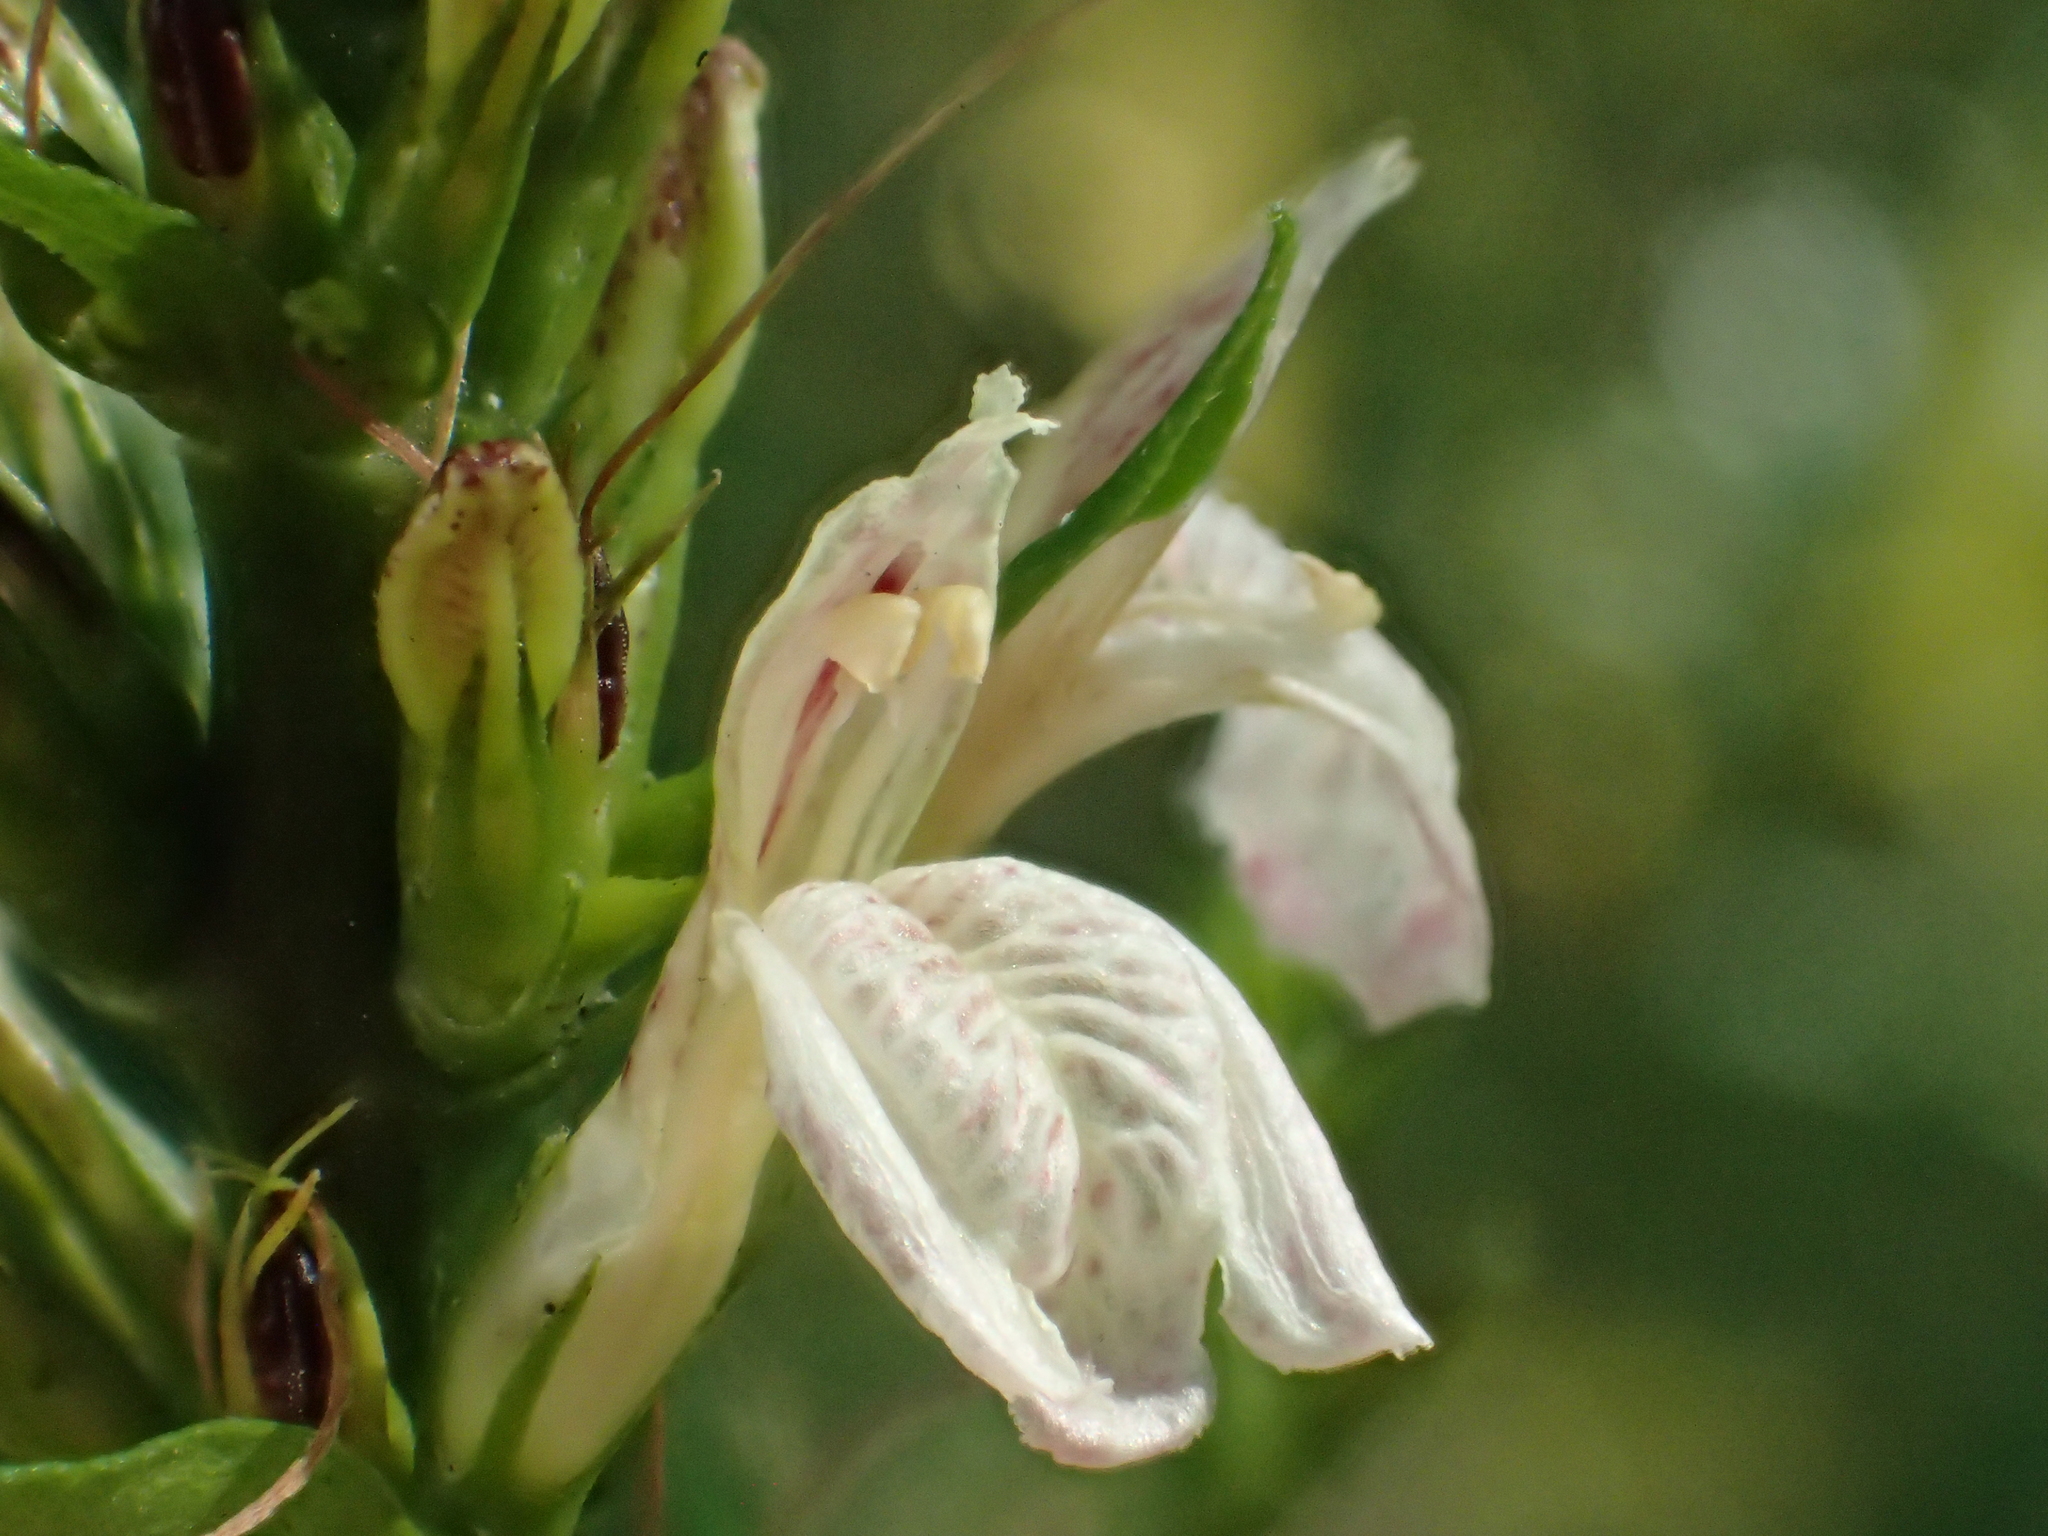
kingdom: Plantae
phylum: Tracheophyta
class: Magnoliopsida
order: Lamiales
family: Acanthaceae
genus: Justicia
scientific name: Justicia gendarussa
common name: Warer willow
